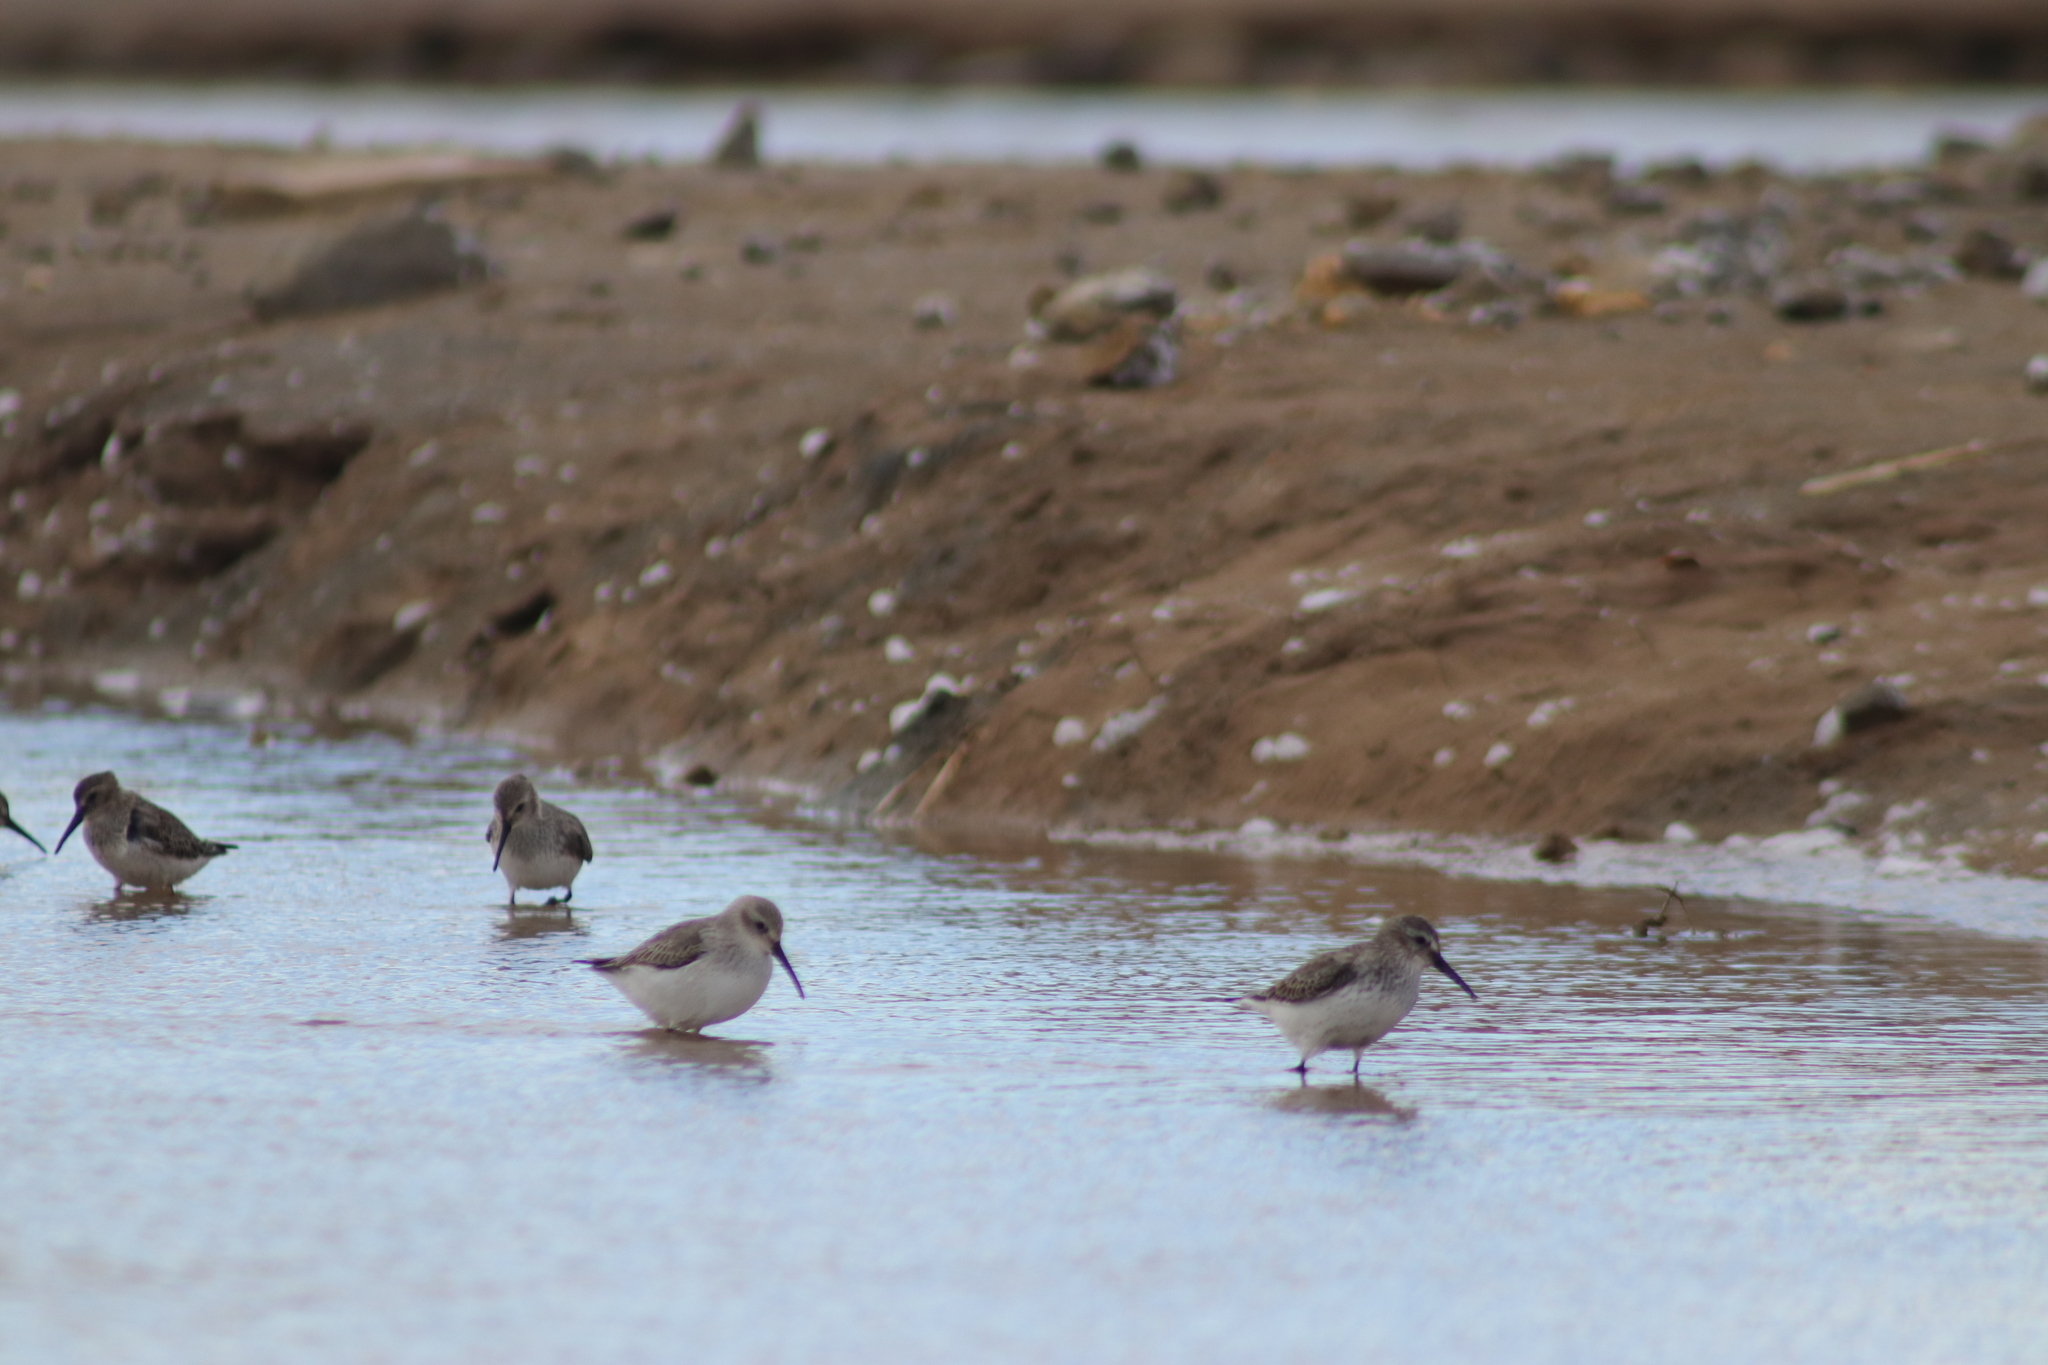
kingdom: Animalia
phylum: Chordata
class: Aves
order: Charadriiformes
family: Scolopacidae
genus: Calidris
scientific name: Calidris alpina
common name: Dunlin
